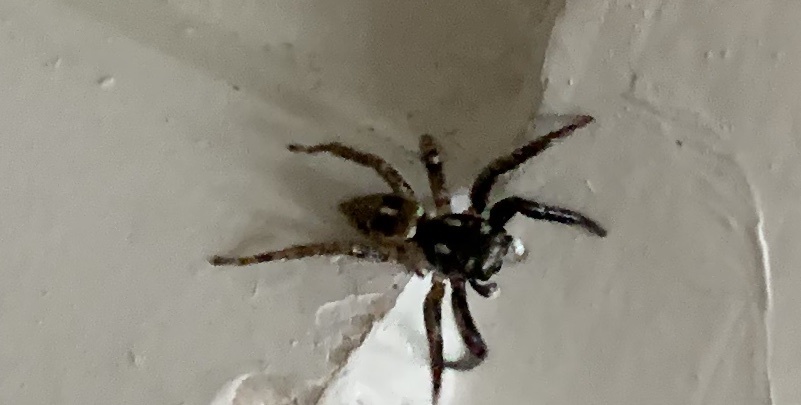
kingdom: Animalia
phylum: Arthropoda
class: Arachnida
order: Araneae
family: Salticidae
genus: Anasaitis
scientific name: Anasaitis canosa
